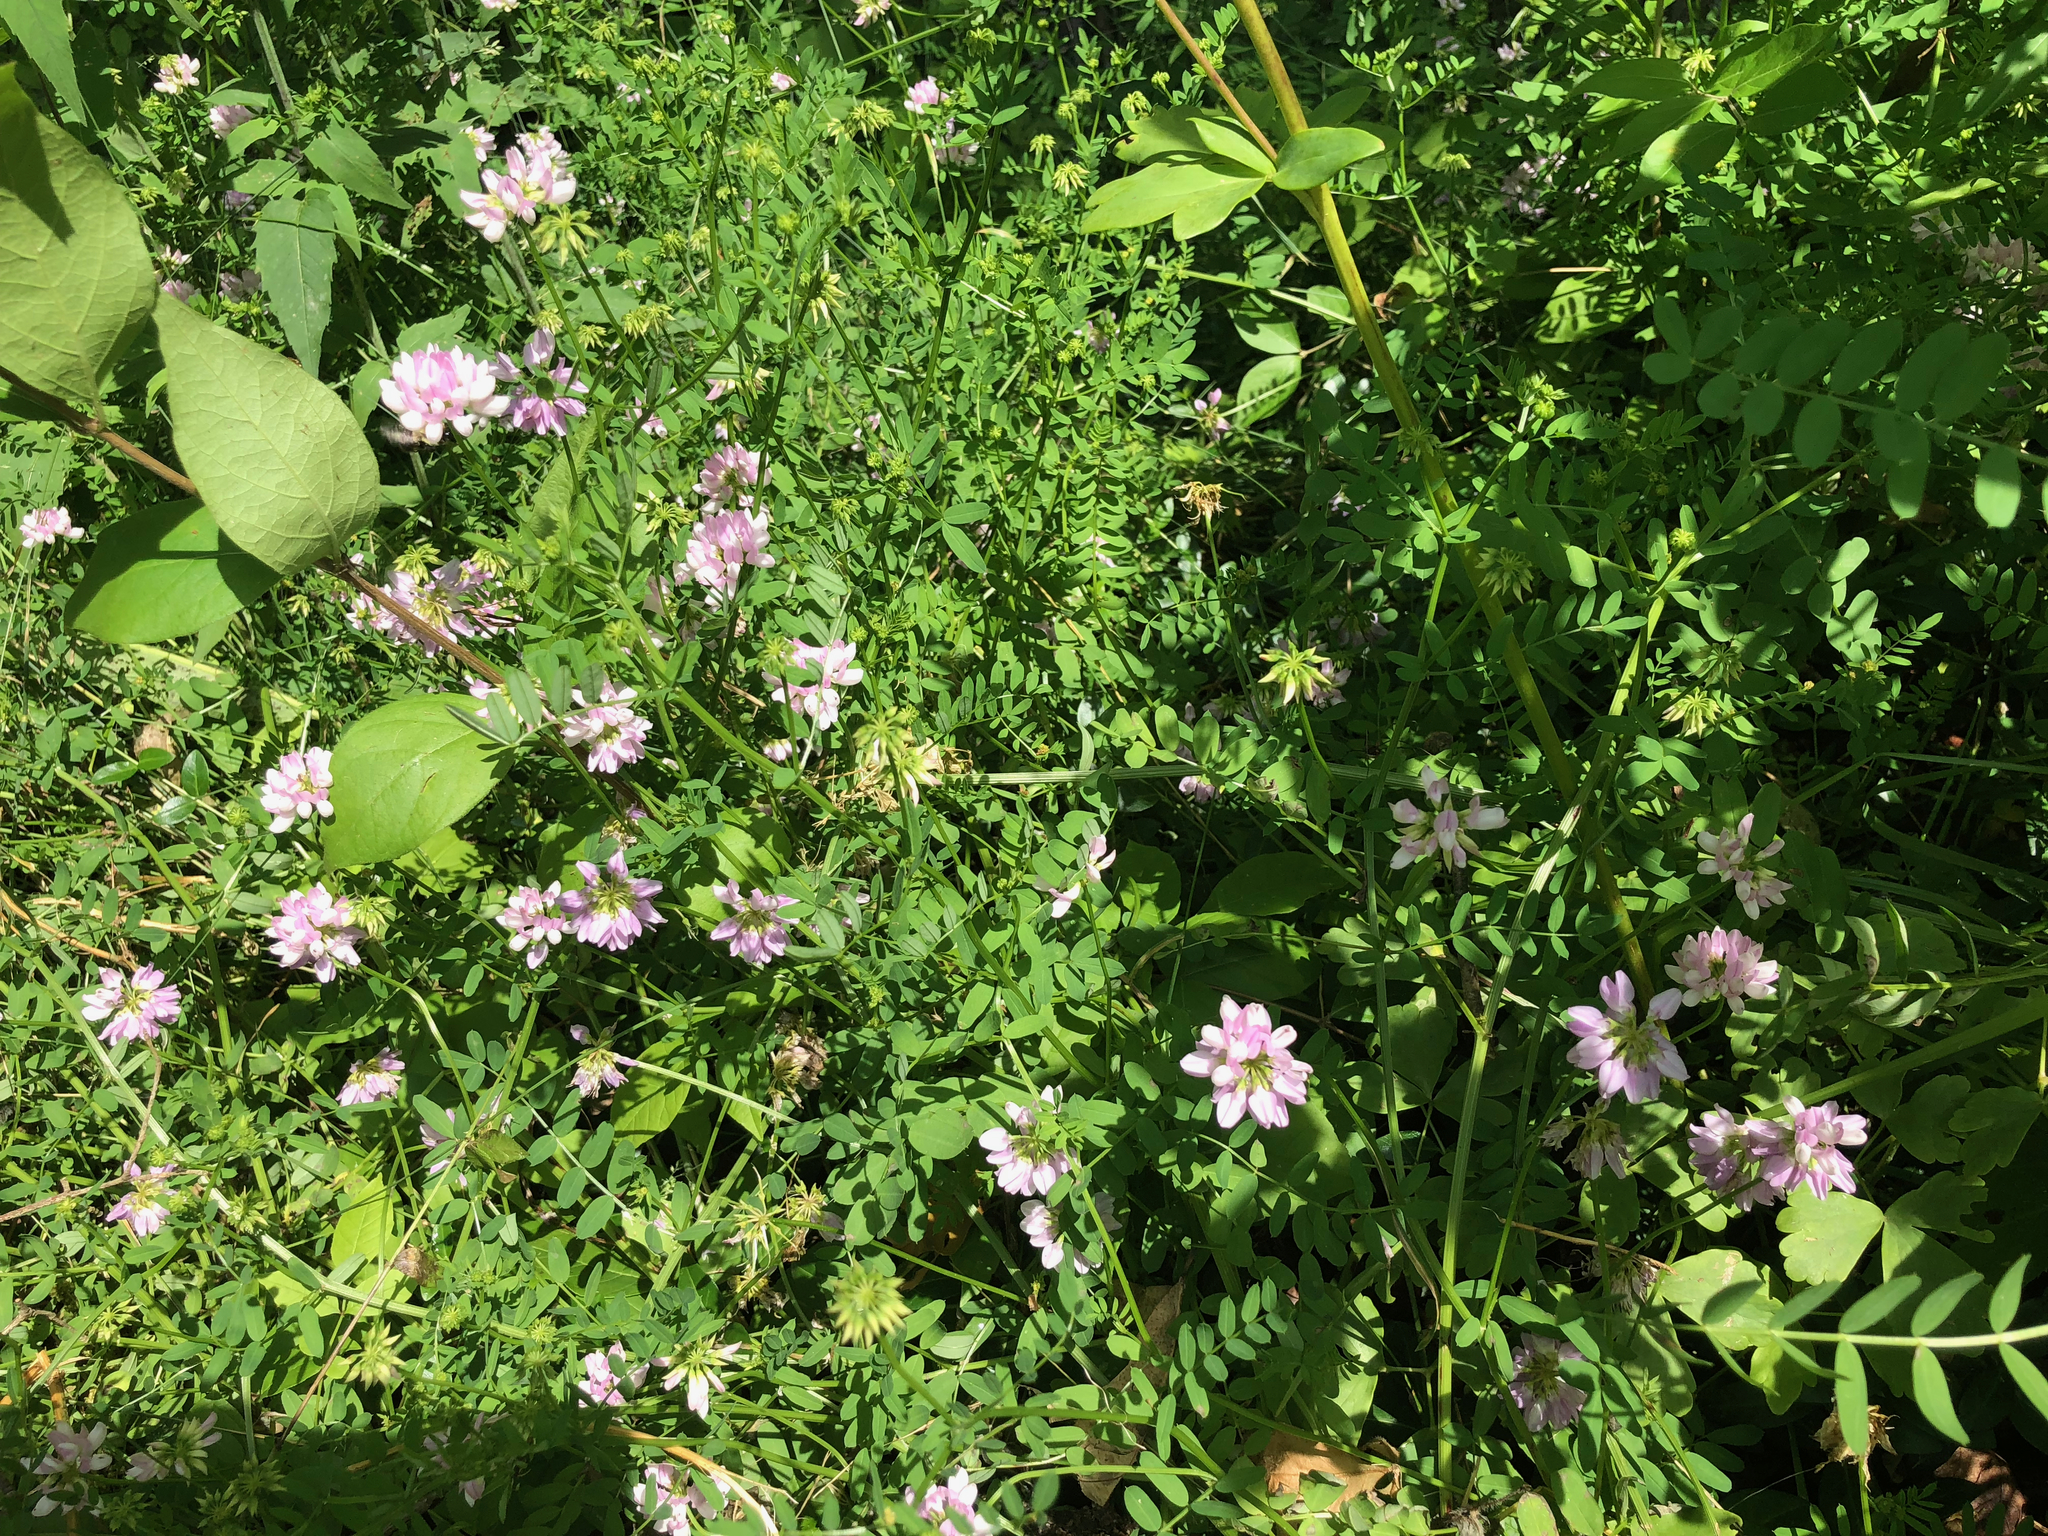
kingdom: Plantae
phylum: Tracheophyta
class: Magnoliopsida
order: Fabales
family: Fabaceae
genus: Coronilla
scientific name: Coronilla varia
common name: Crownvetch
